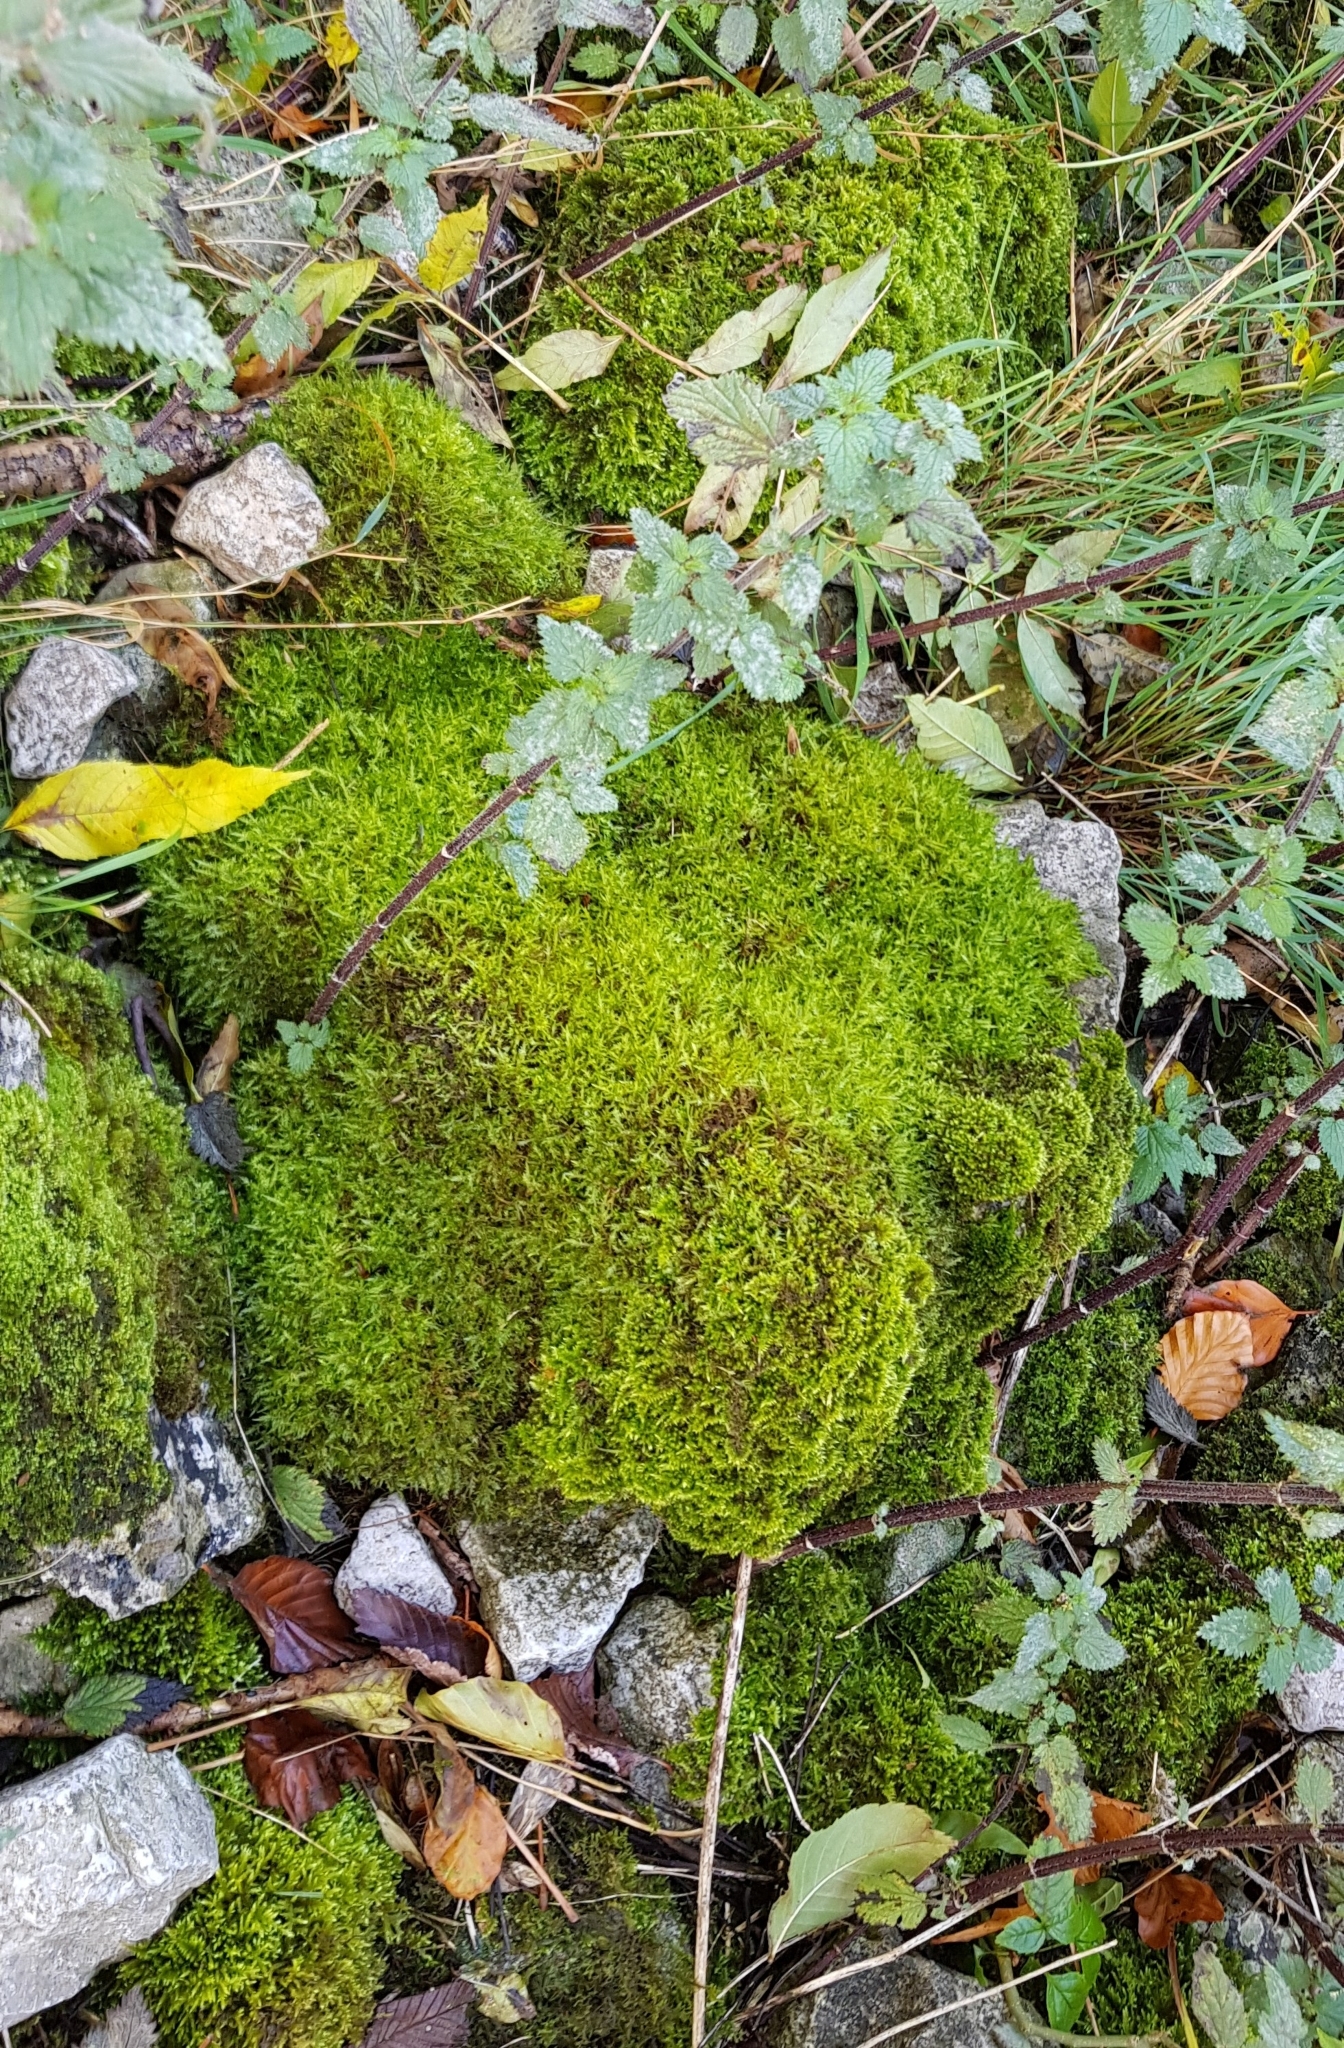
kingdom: Plantae
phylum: Bryophyta
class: Bryopsida
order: Hypnales
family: Pylaisiaceae
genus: Calliergonella
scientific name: Calliergonella cuspidata
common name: Common large wetland moss
